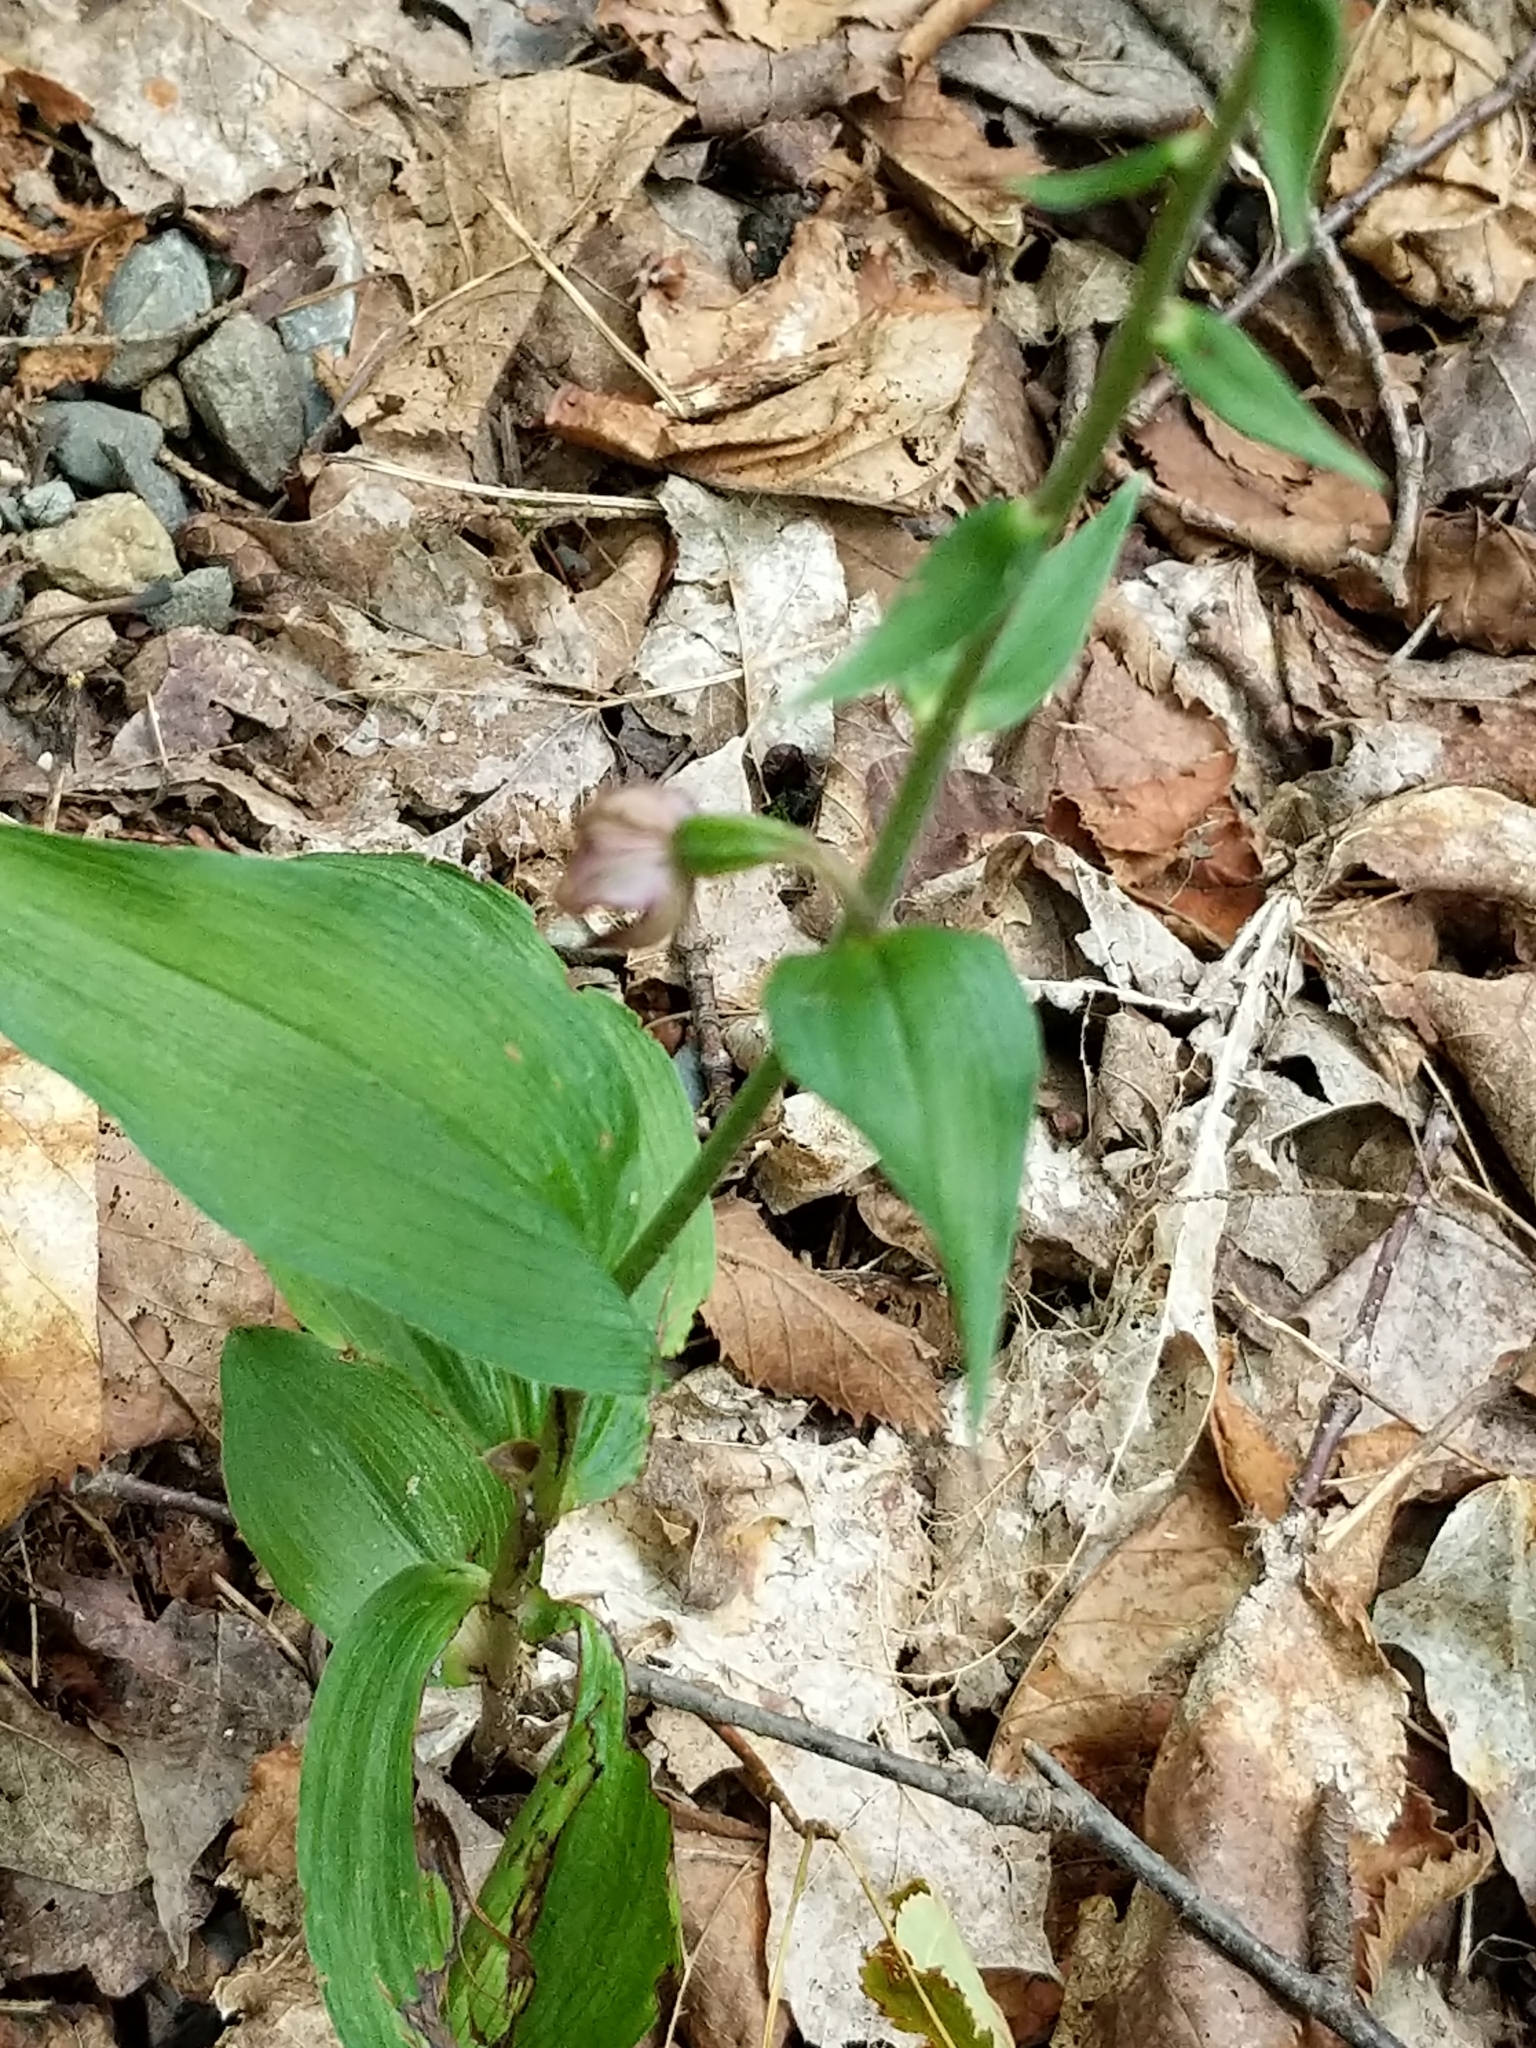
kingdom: Plantae
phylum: Tracheophyta
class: Liliopsida
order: Asparagales
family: Orchidaceae
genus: Epipactis
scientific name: Epipactis helleborine
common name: Broad-leaved helleborine
